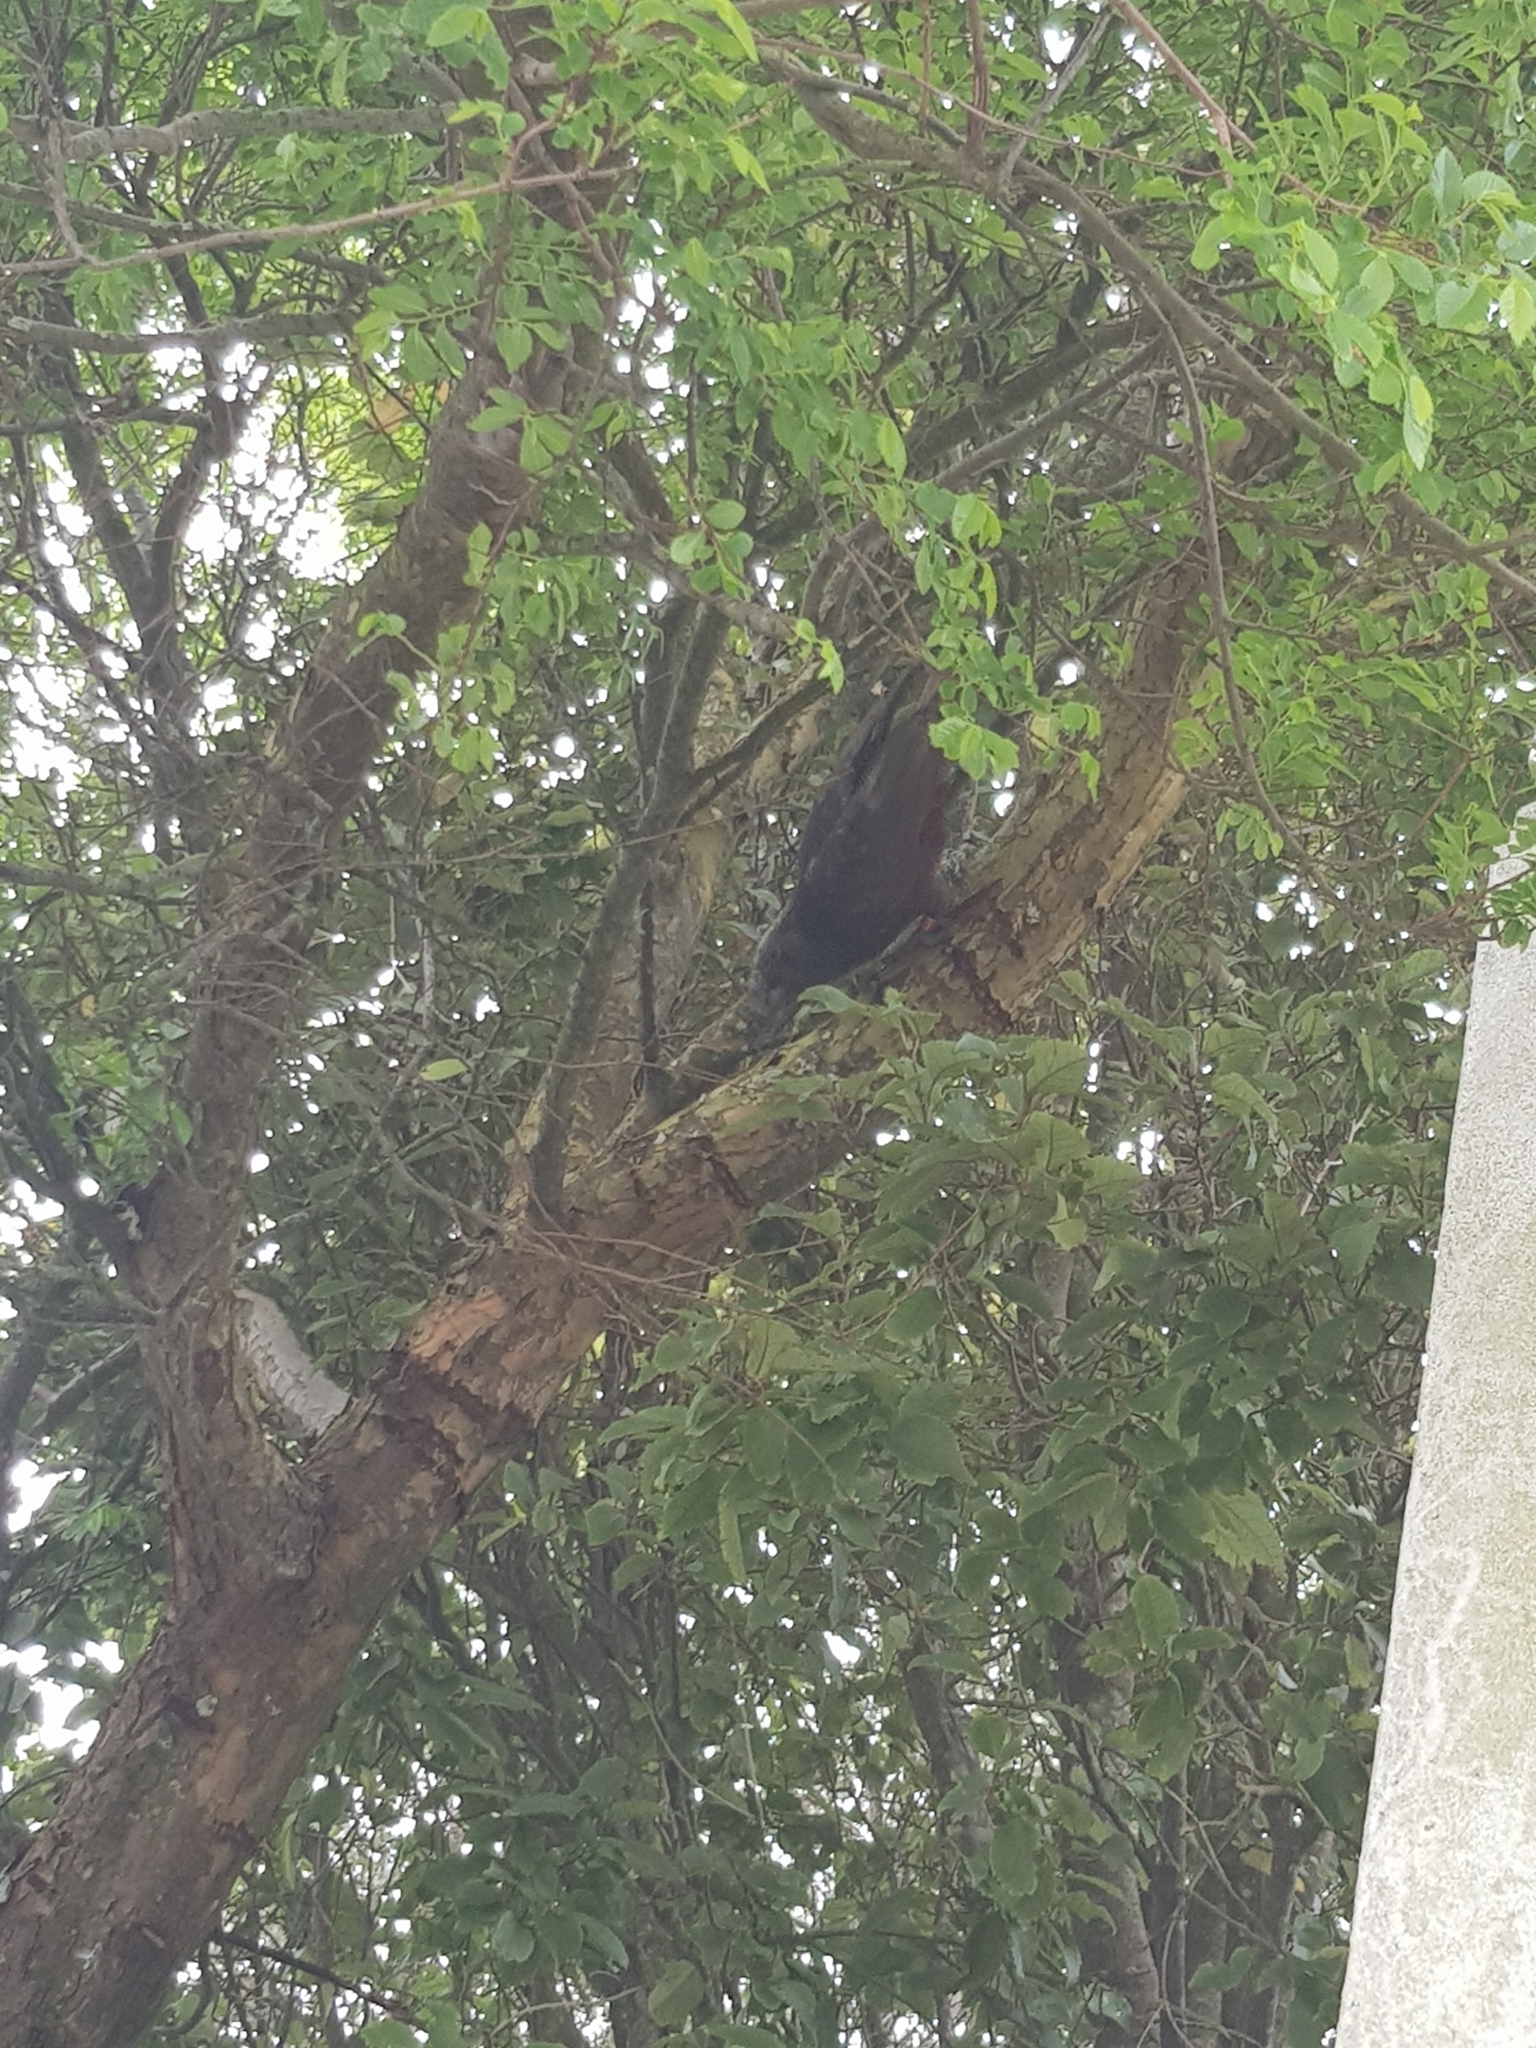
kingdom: Animalia
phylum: Chordata
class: Aves
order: Psittaciformes
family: Psittacidae
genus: Nestor
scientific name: Nestor meridionalis
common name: New zealand kaka
